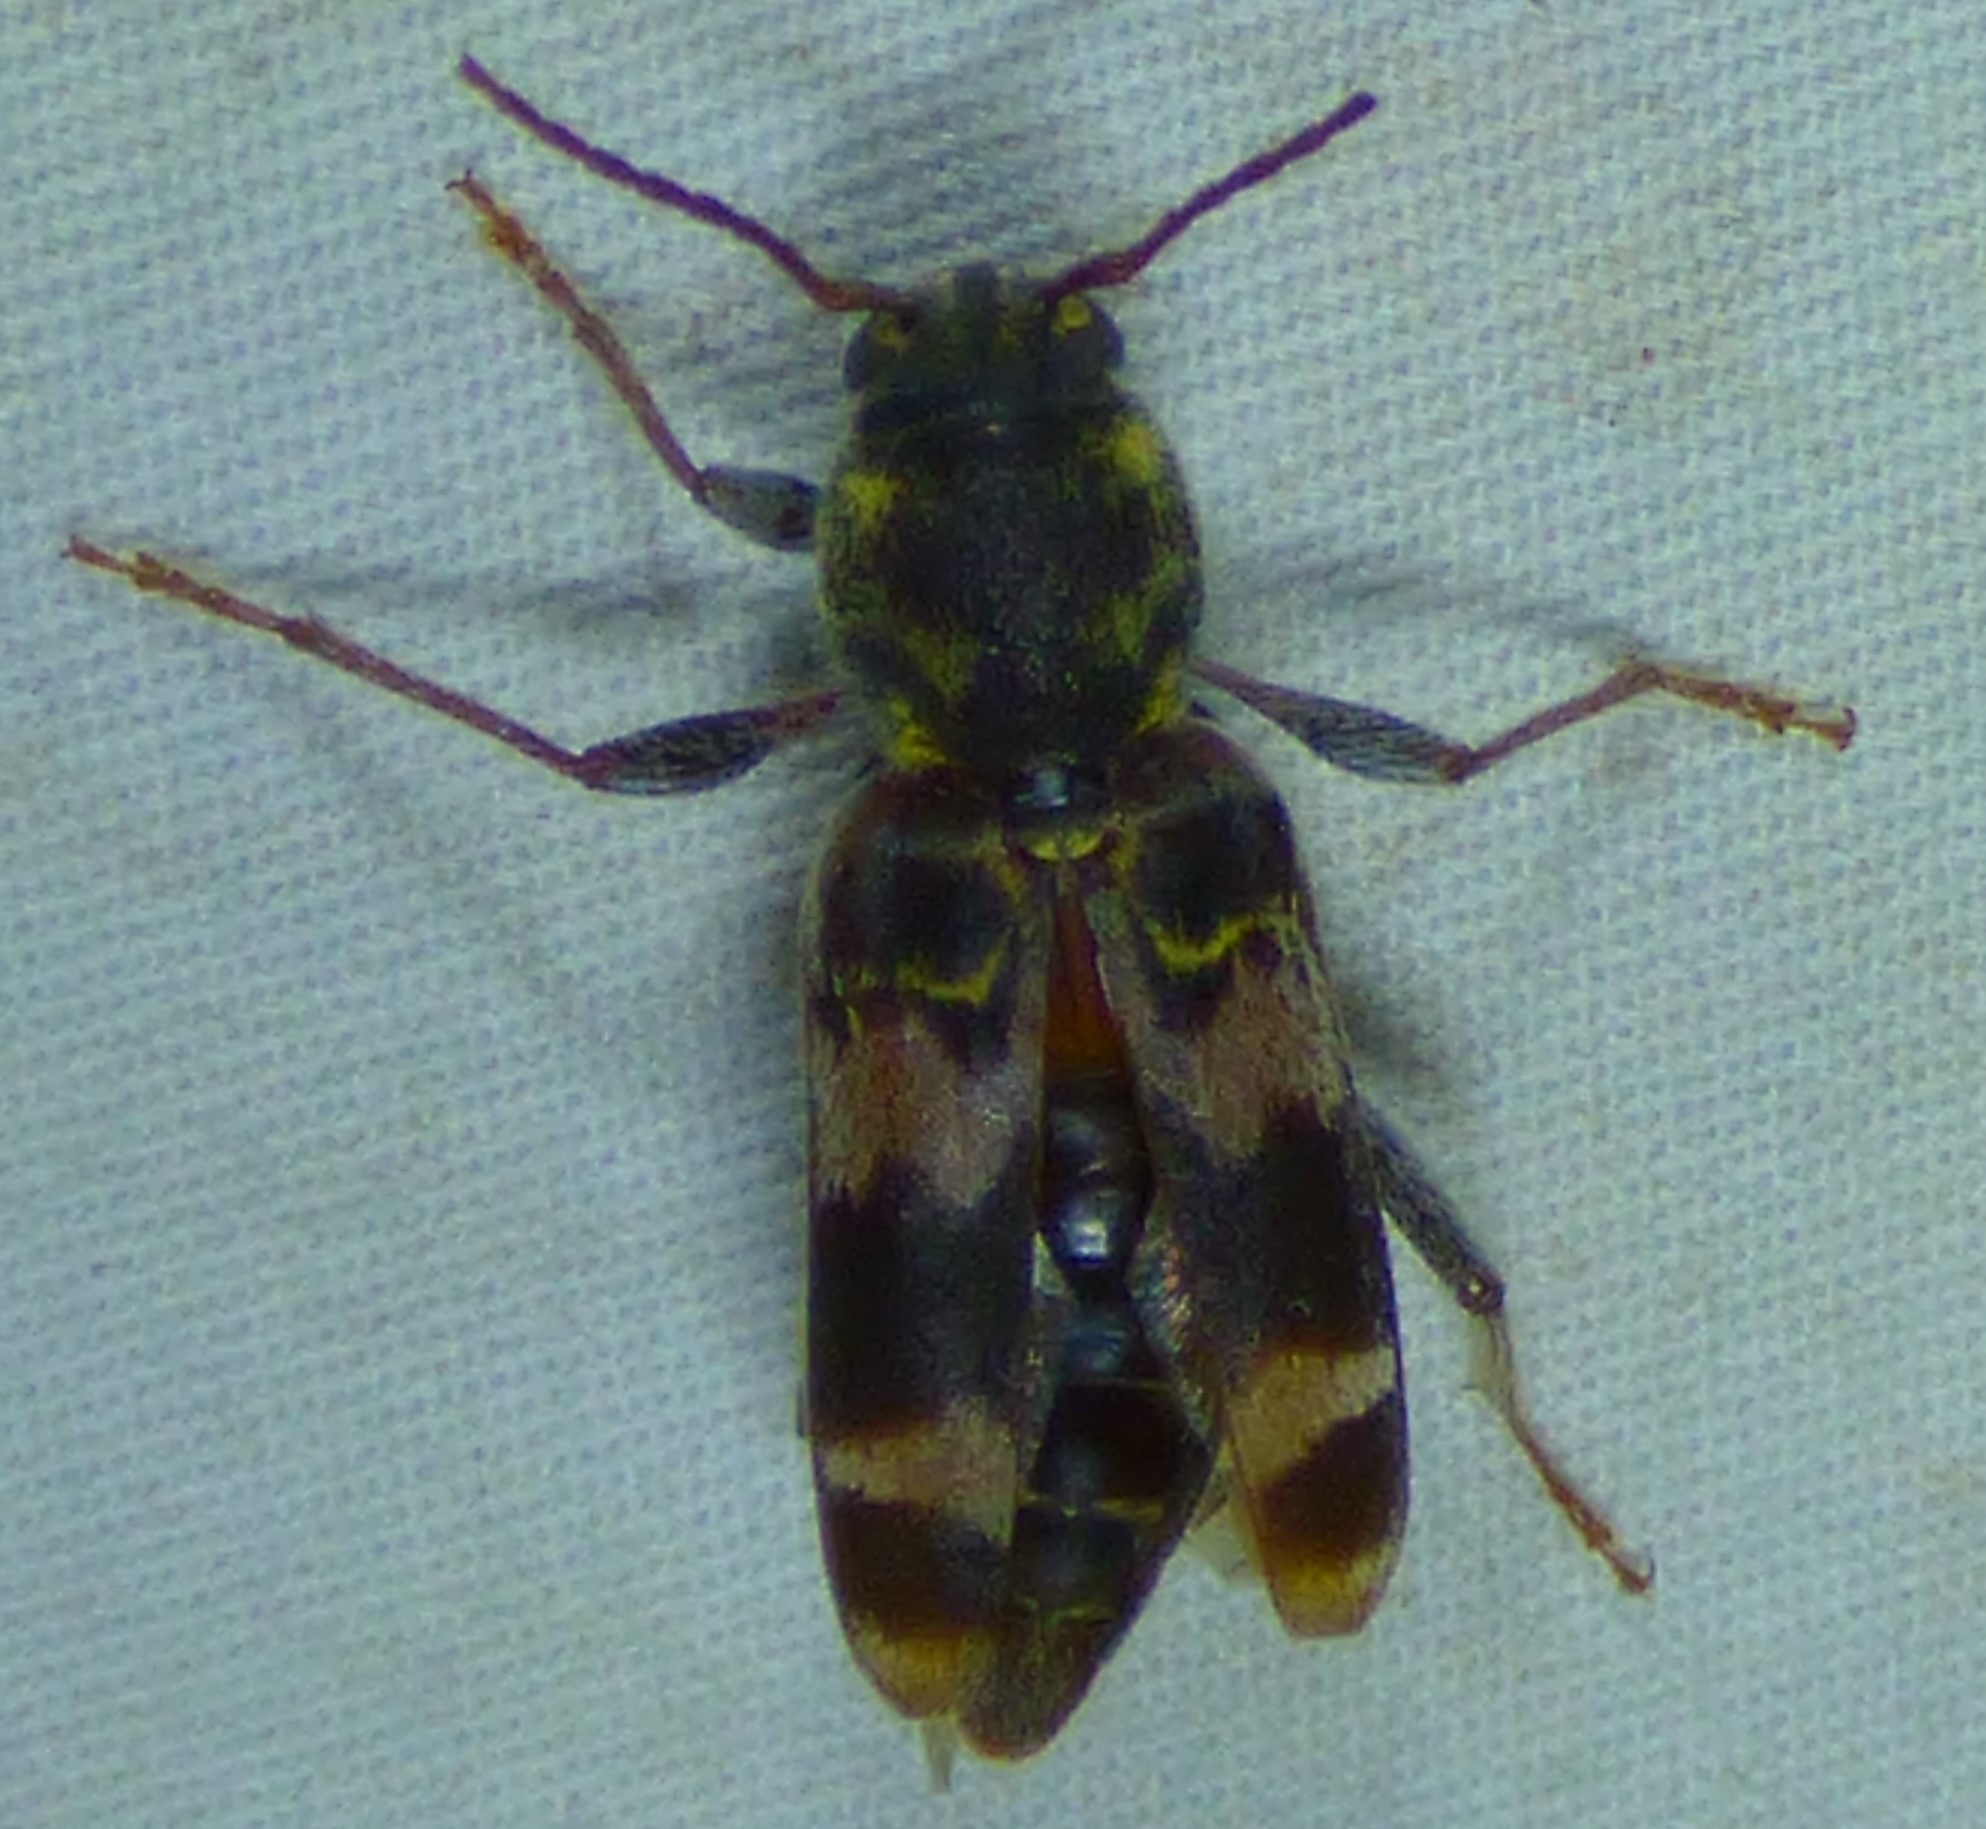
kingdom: Animalia
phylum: Arthropoda
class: Insecta
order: Coleoptera
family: Cerambycidae
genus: Xylotrechus
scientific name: Xylotrechus colonus
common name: Long-horned beetle
